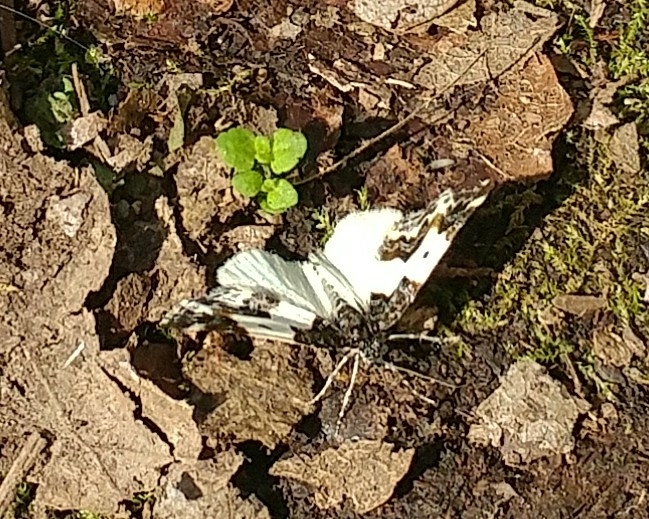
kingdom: Animalia
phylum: Arthropoda
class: Insecta
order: Lepidoptera
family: Geometridae
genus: Mesoleuca
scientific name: Mesoleuca gratulata
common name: Half-white carpet moth
